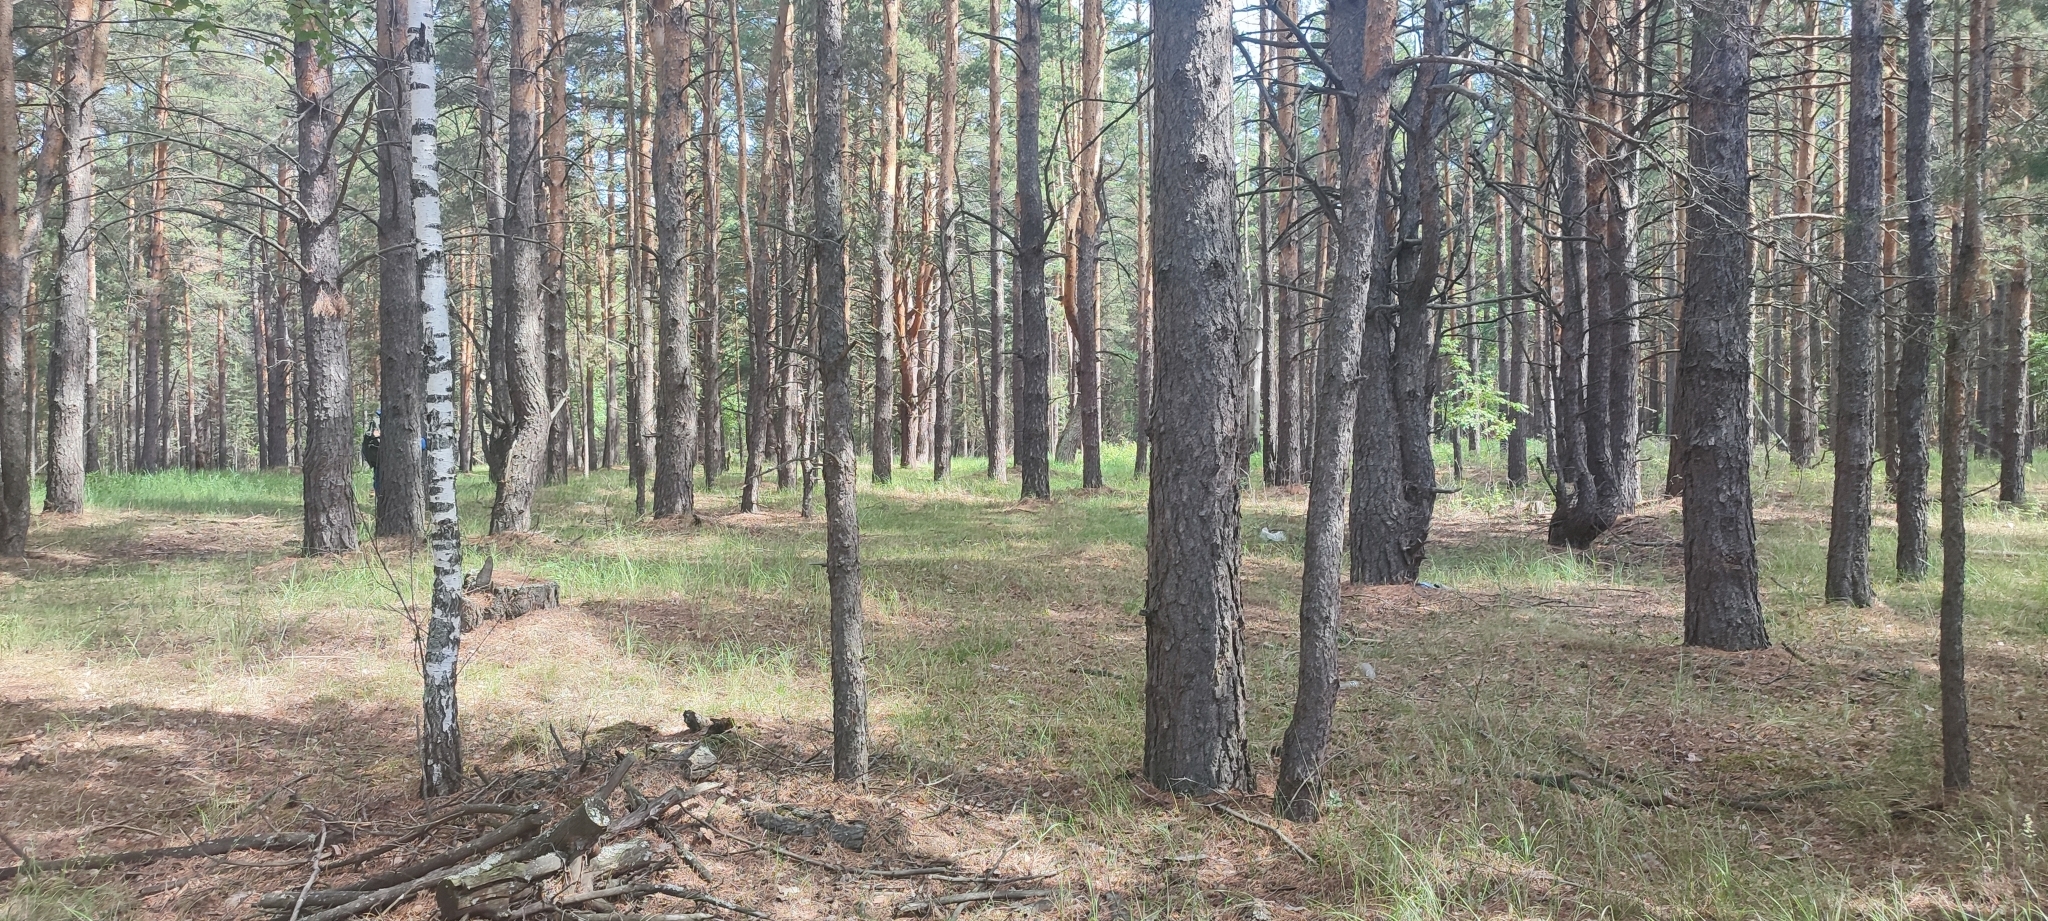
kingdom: Plantae
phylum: Tracheophyta
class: Pinopsida
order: Pinales
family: Pinaceae
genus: Pinus
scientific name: Pinus sylvestris
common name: Scots pine
